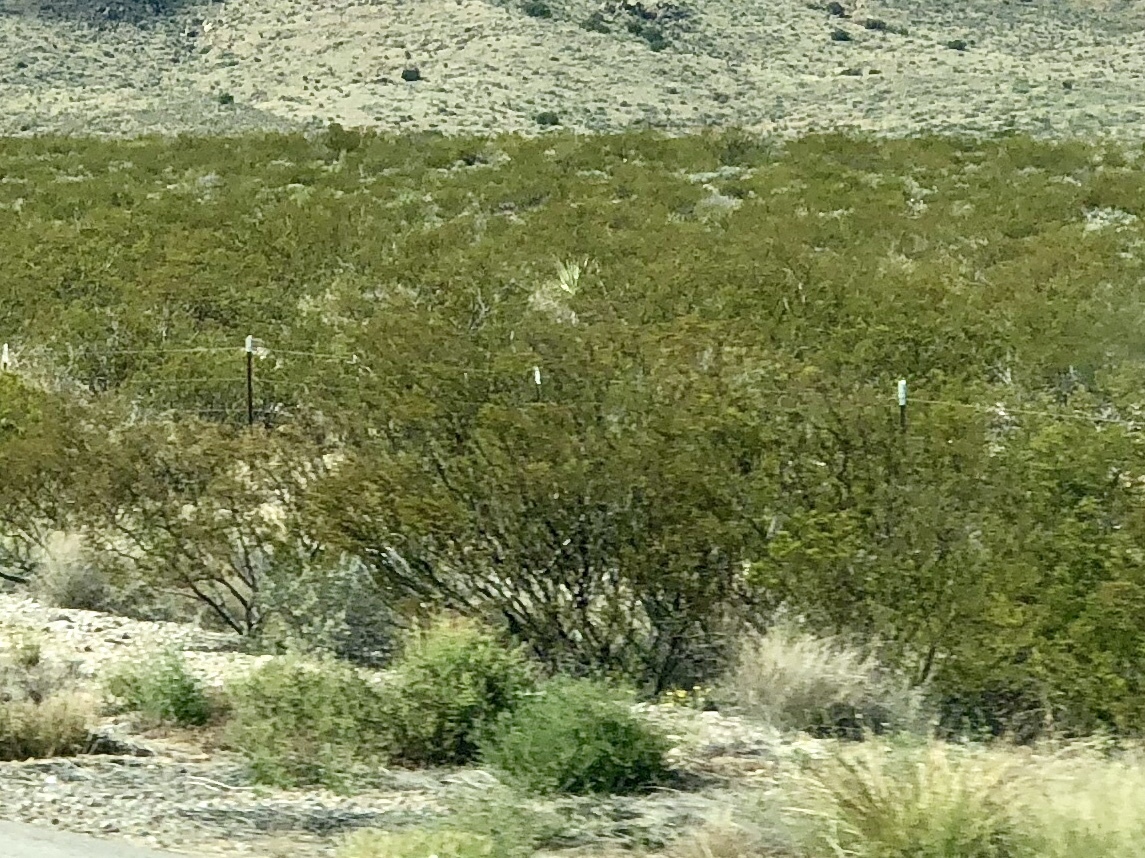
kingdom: Plantae
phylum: Tracheophyta
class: Magnoliopsida
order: Zygophyllales
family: Zygophyllaceae
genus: Larrea
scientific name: Larrea tridentata
